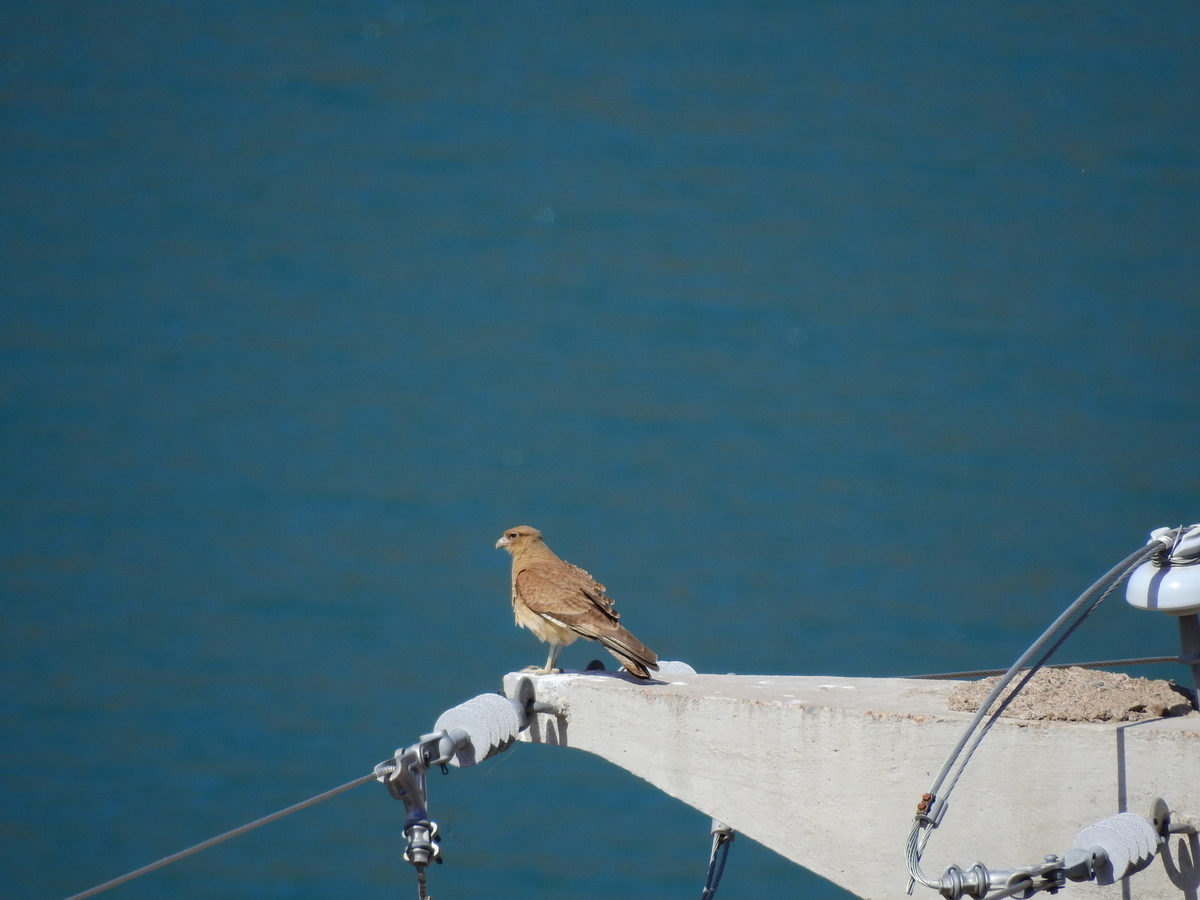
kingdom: Animalia
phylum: Chordata
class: Aves
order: Falconiformes
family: Falconidae
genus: Daptrius
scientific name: Daptrius
